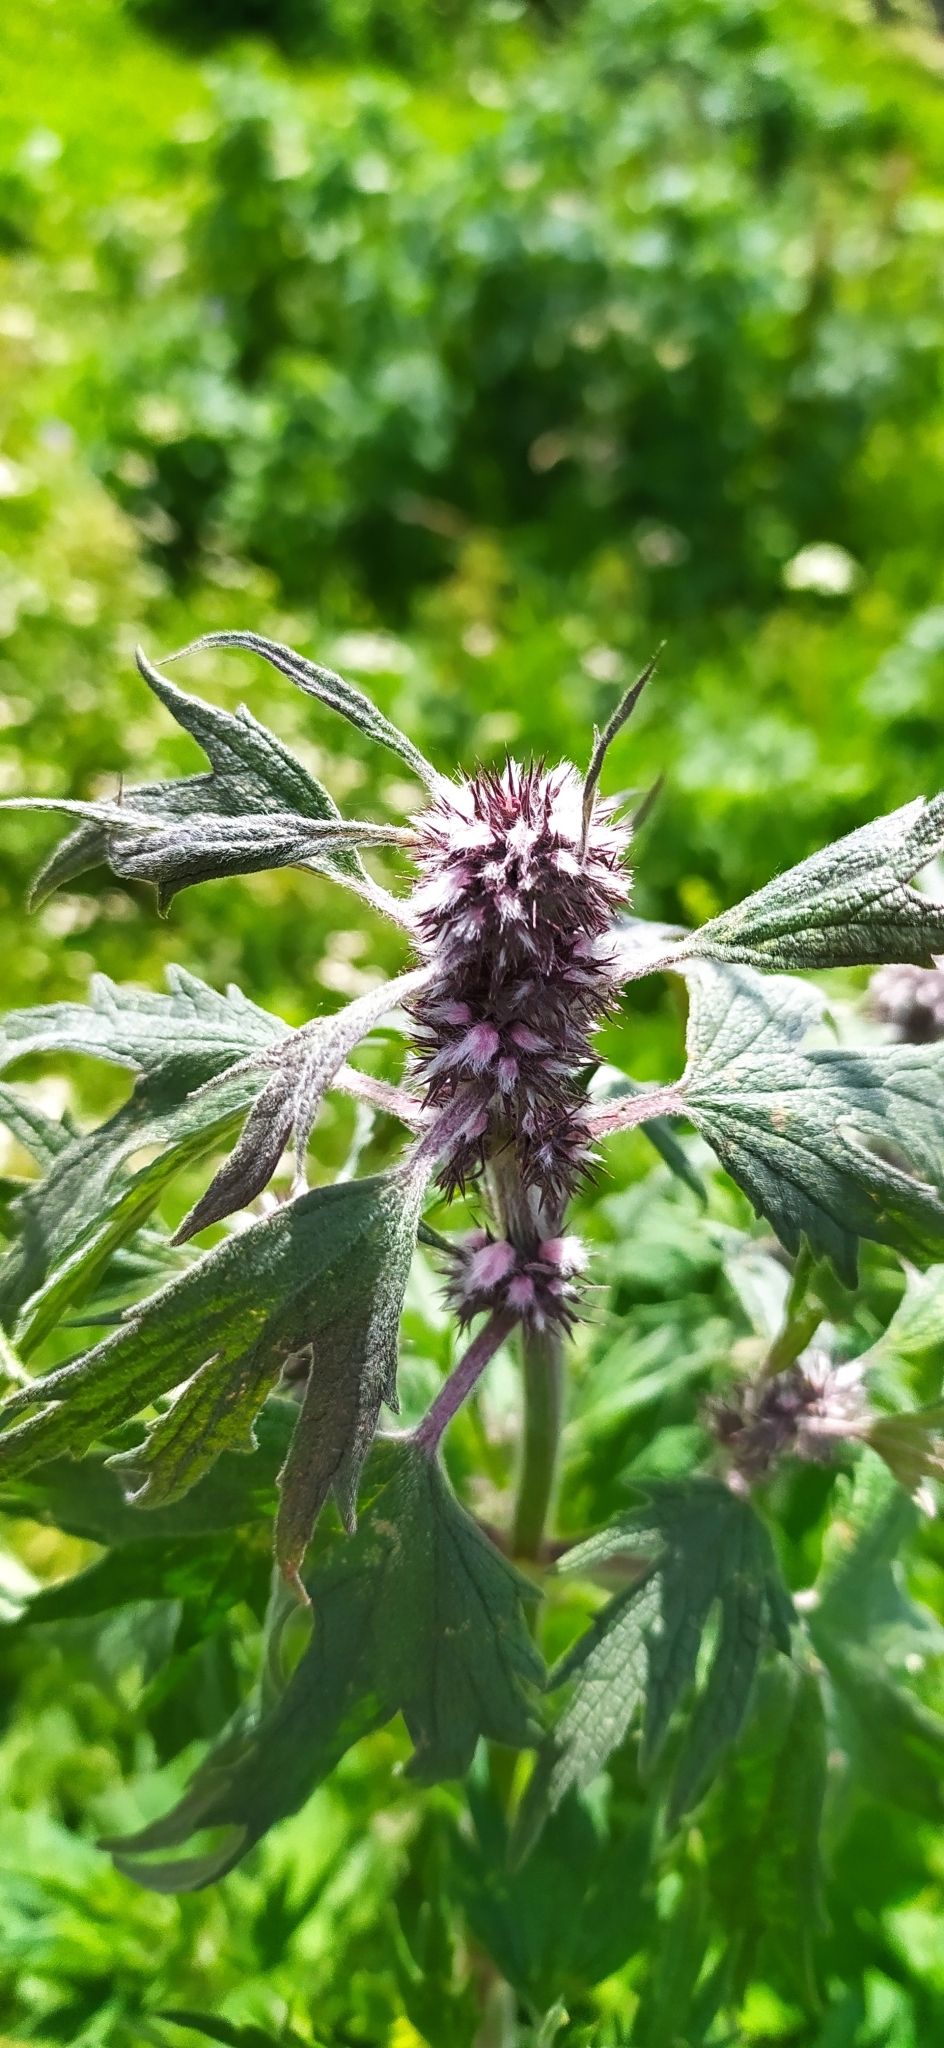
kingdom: Plantae
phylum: Tracheophyta
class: Magnoliopsida
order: Lamiales
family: Lamiaceae
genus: Leonurus
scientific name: Leonurus quinquelobatus
